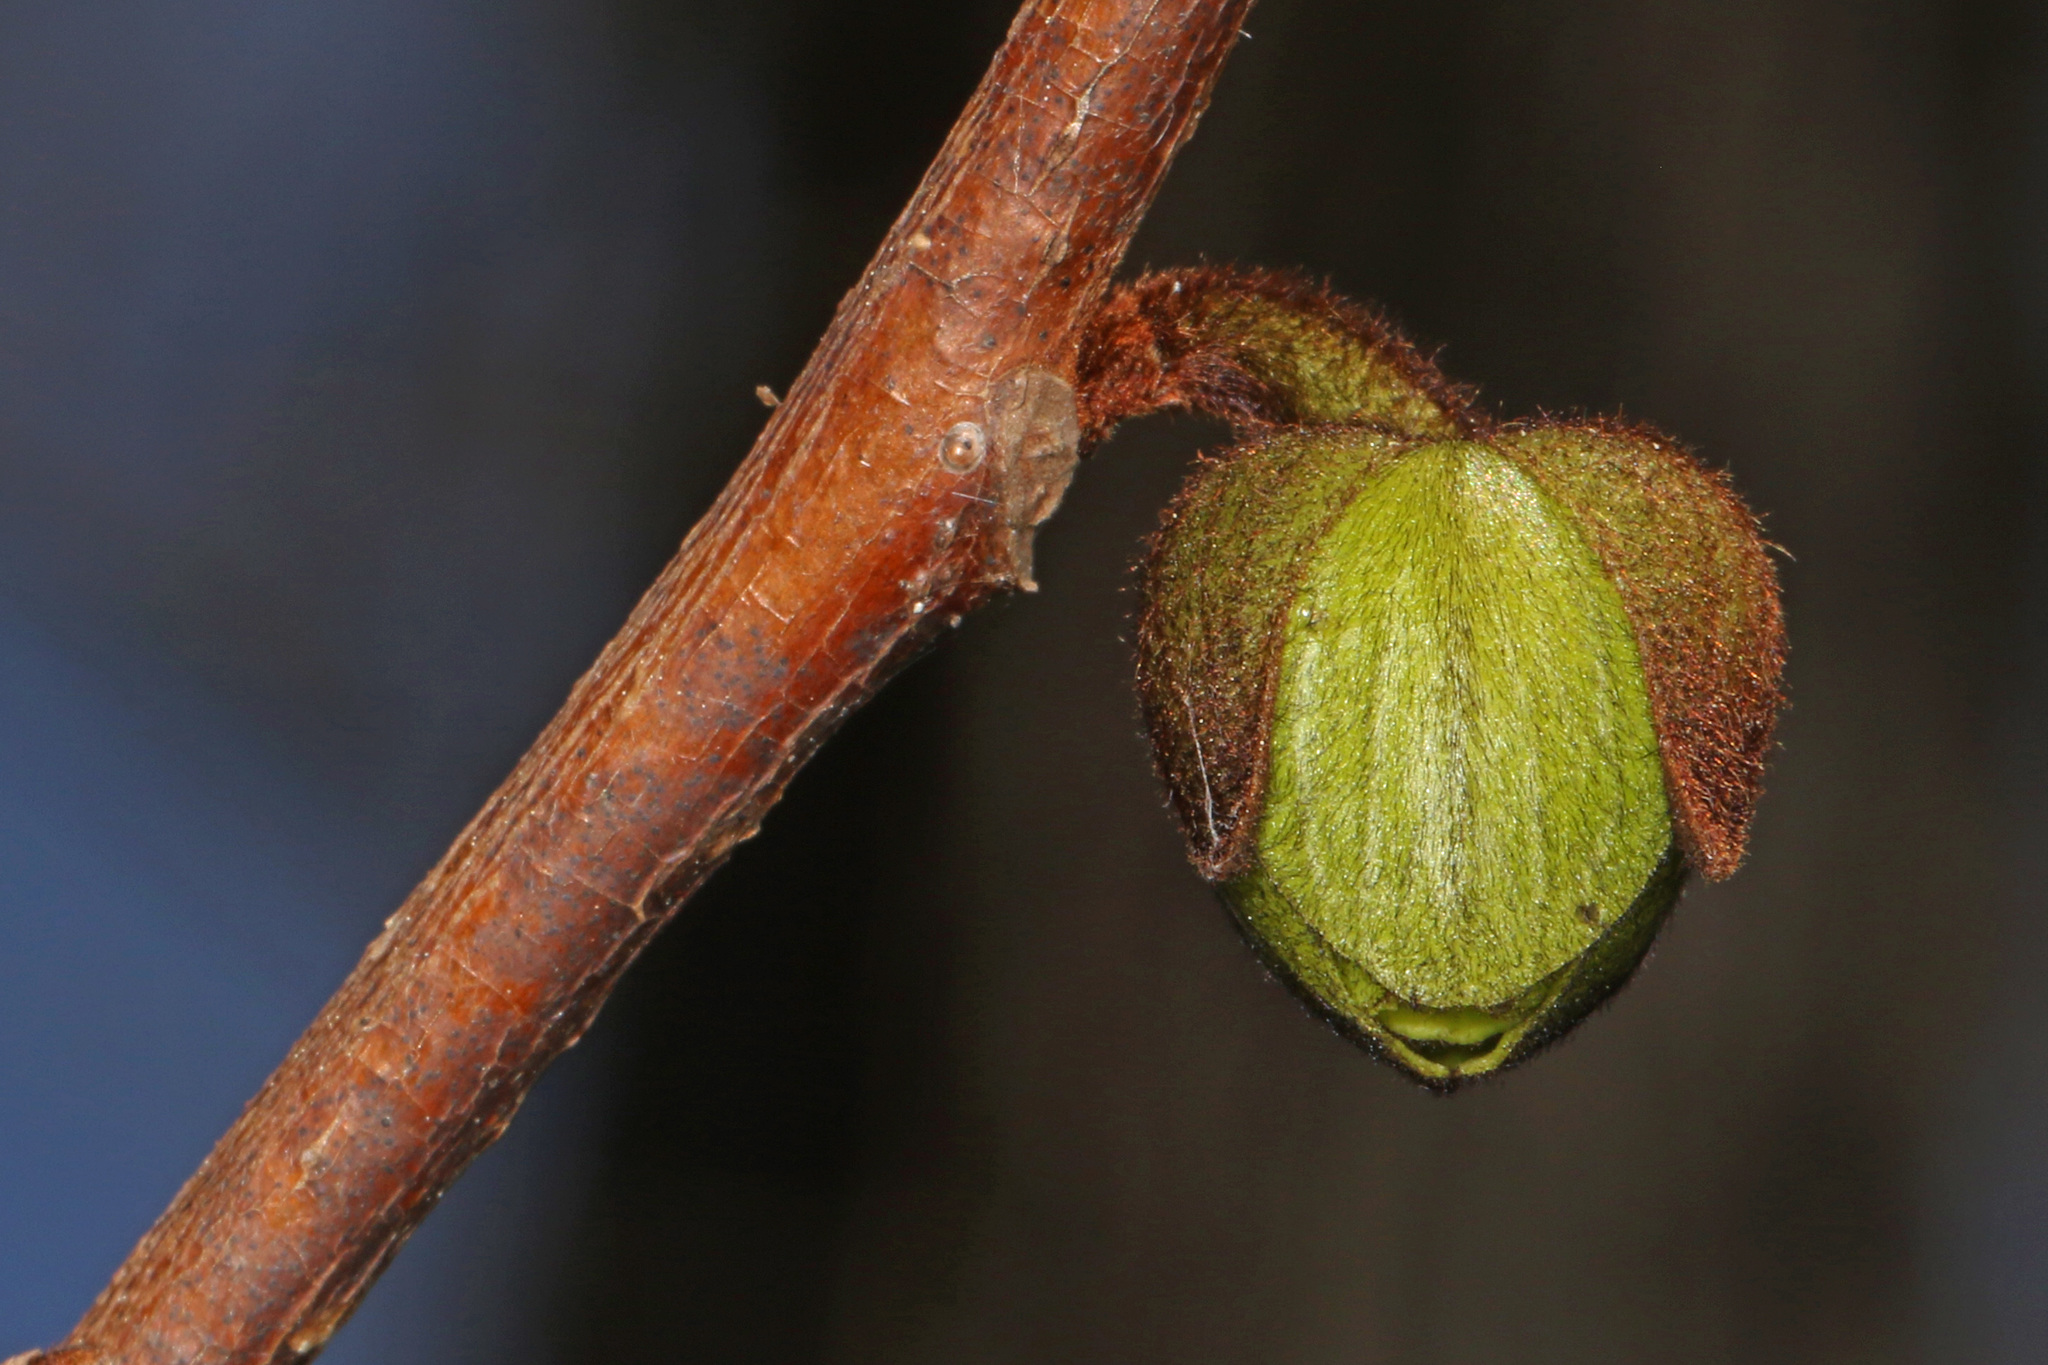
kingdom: Plantae
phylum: Tracheophyta
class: Magnoliopsida
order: Magnoliales
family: Annonaceae
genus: Asimina
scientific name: Asimina triloba
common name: Dog-banana
